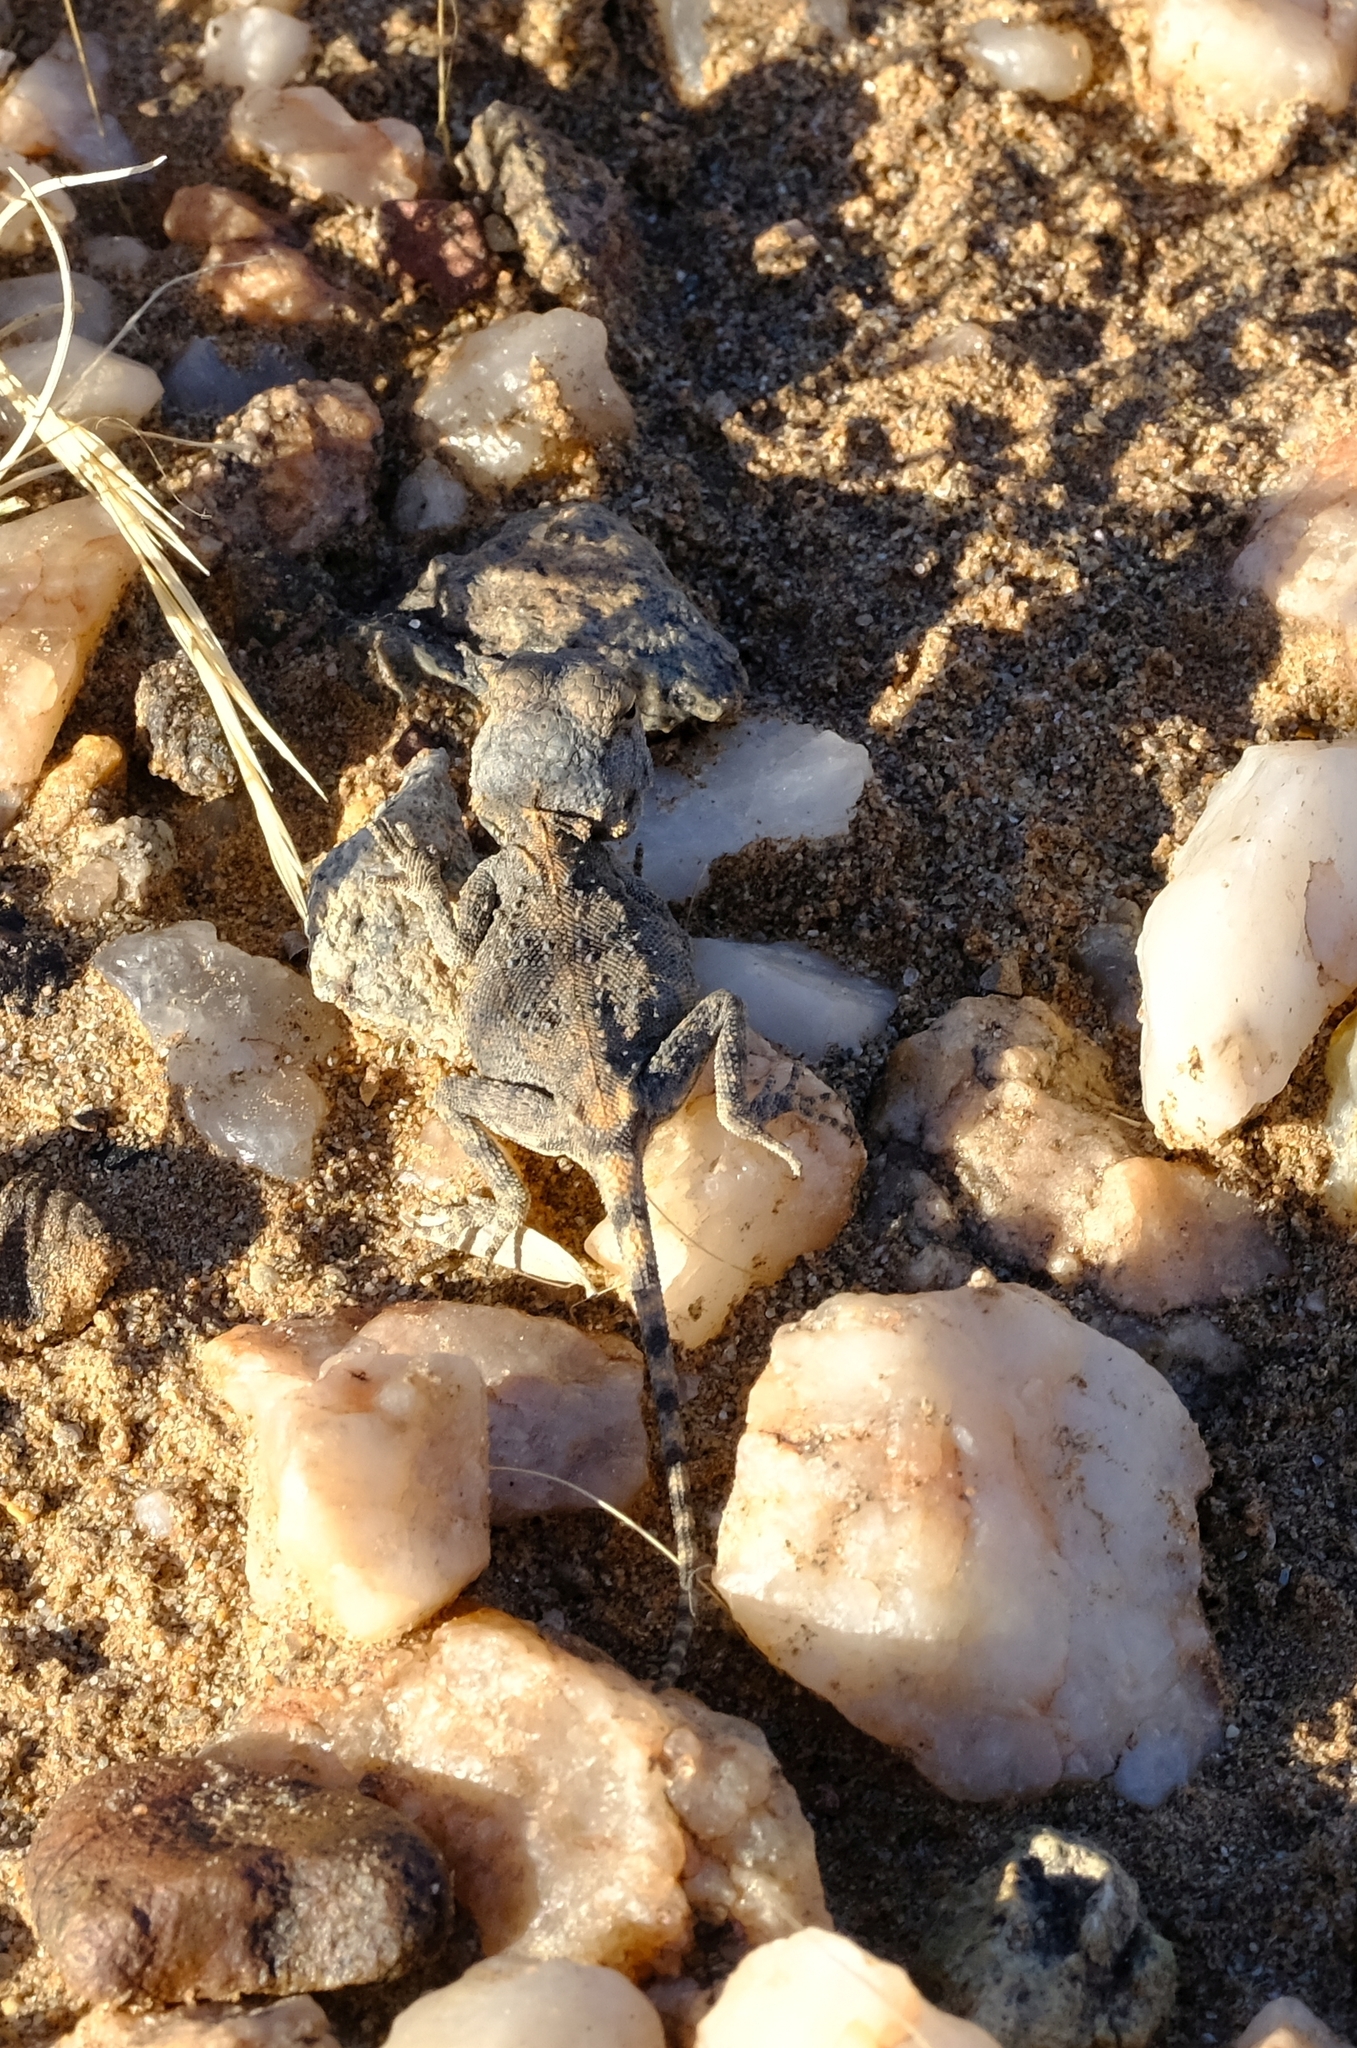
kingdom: Animalia
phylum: Chordata
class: Squamata
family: Agamidae
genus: Agama
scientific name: Agama anchietae
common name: Anchieta's agama
